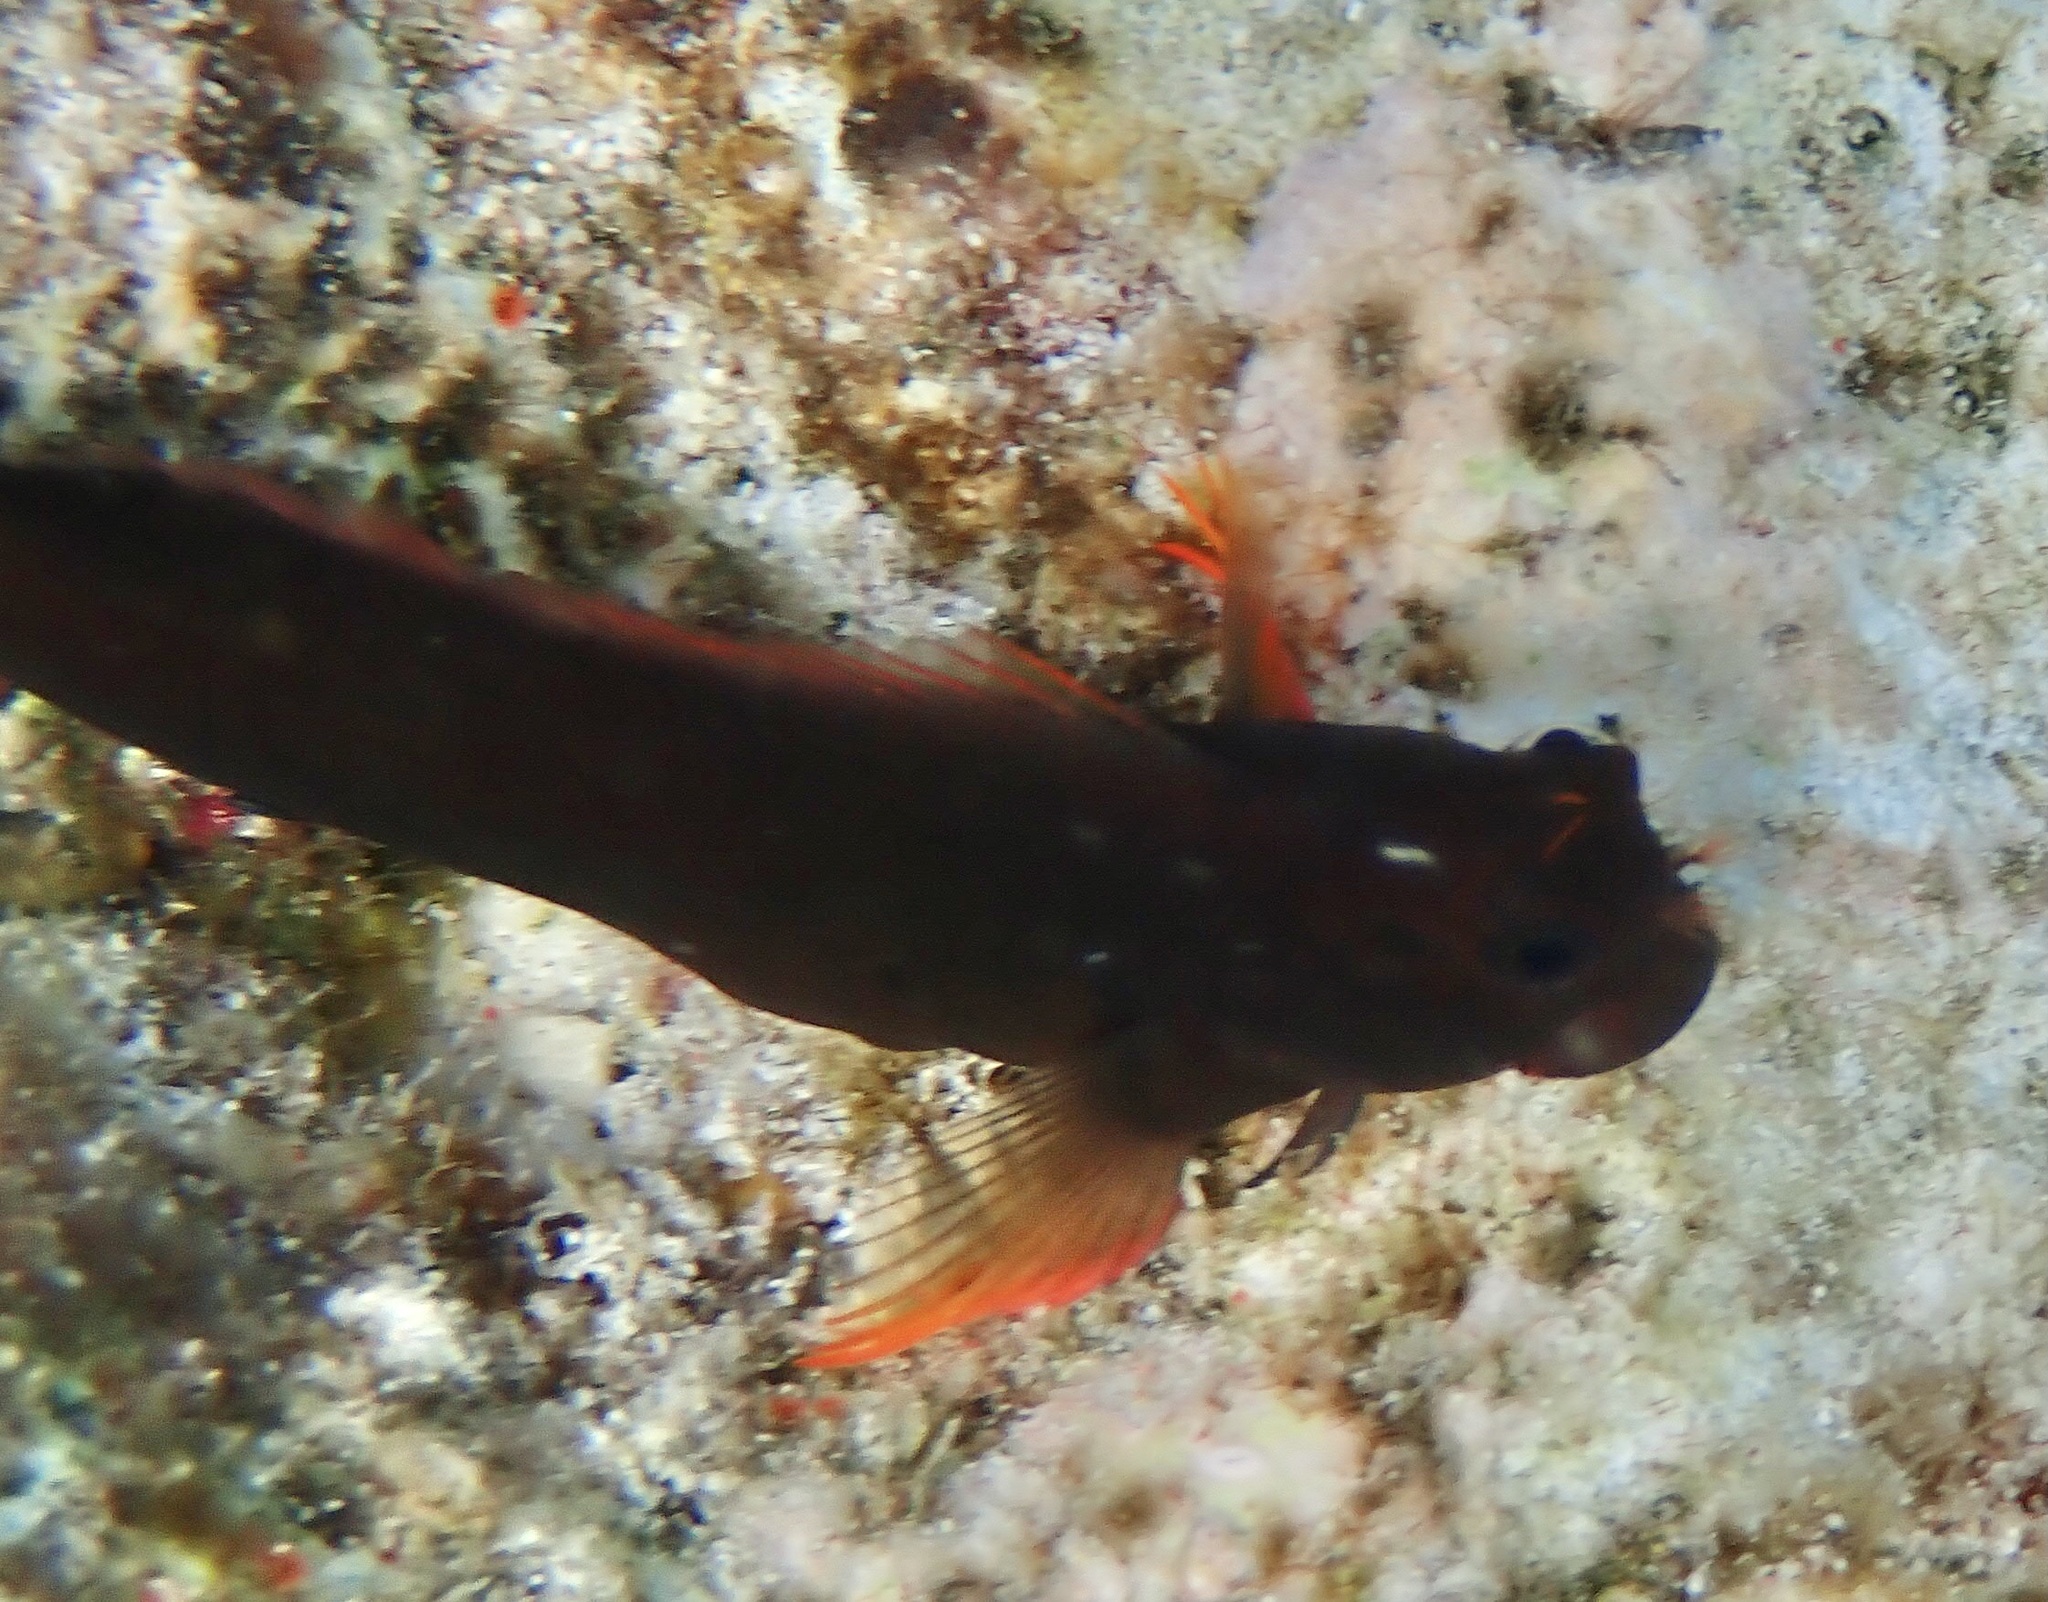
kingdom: Animalia
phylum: Chordata
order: Perciformes
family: Blenniidae
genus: Ophioblennius
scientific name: Ophioblennius macclurei
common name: Redlip blenny
